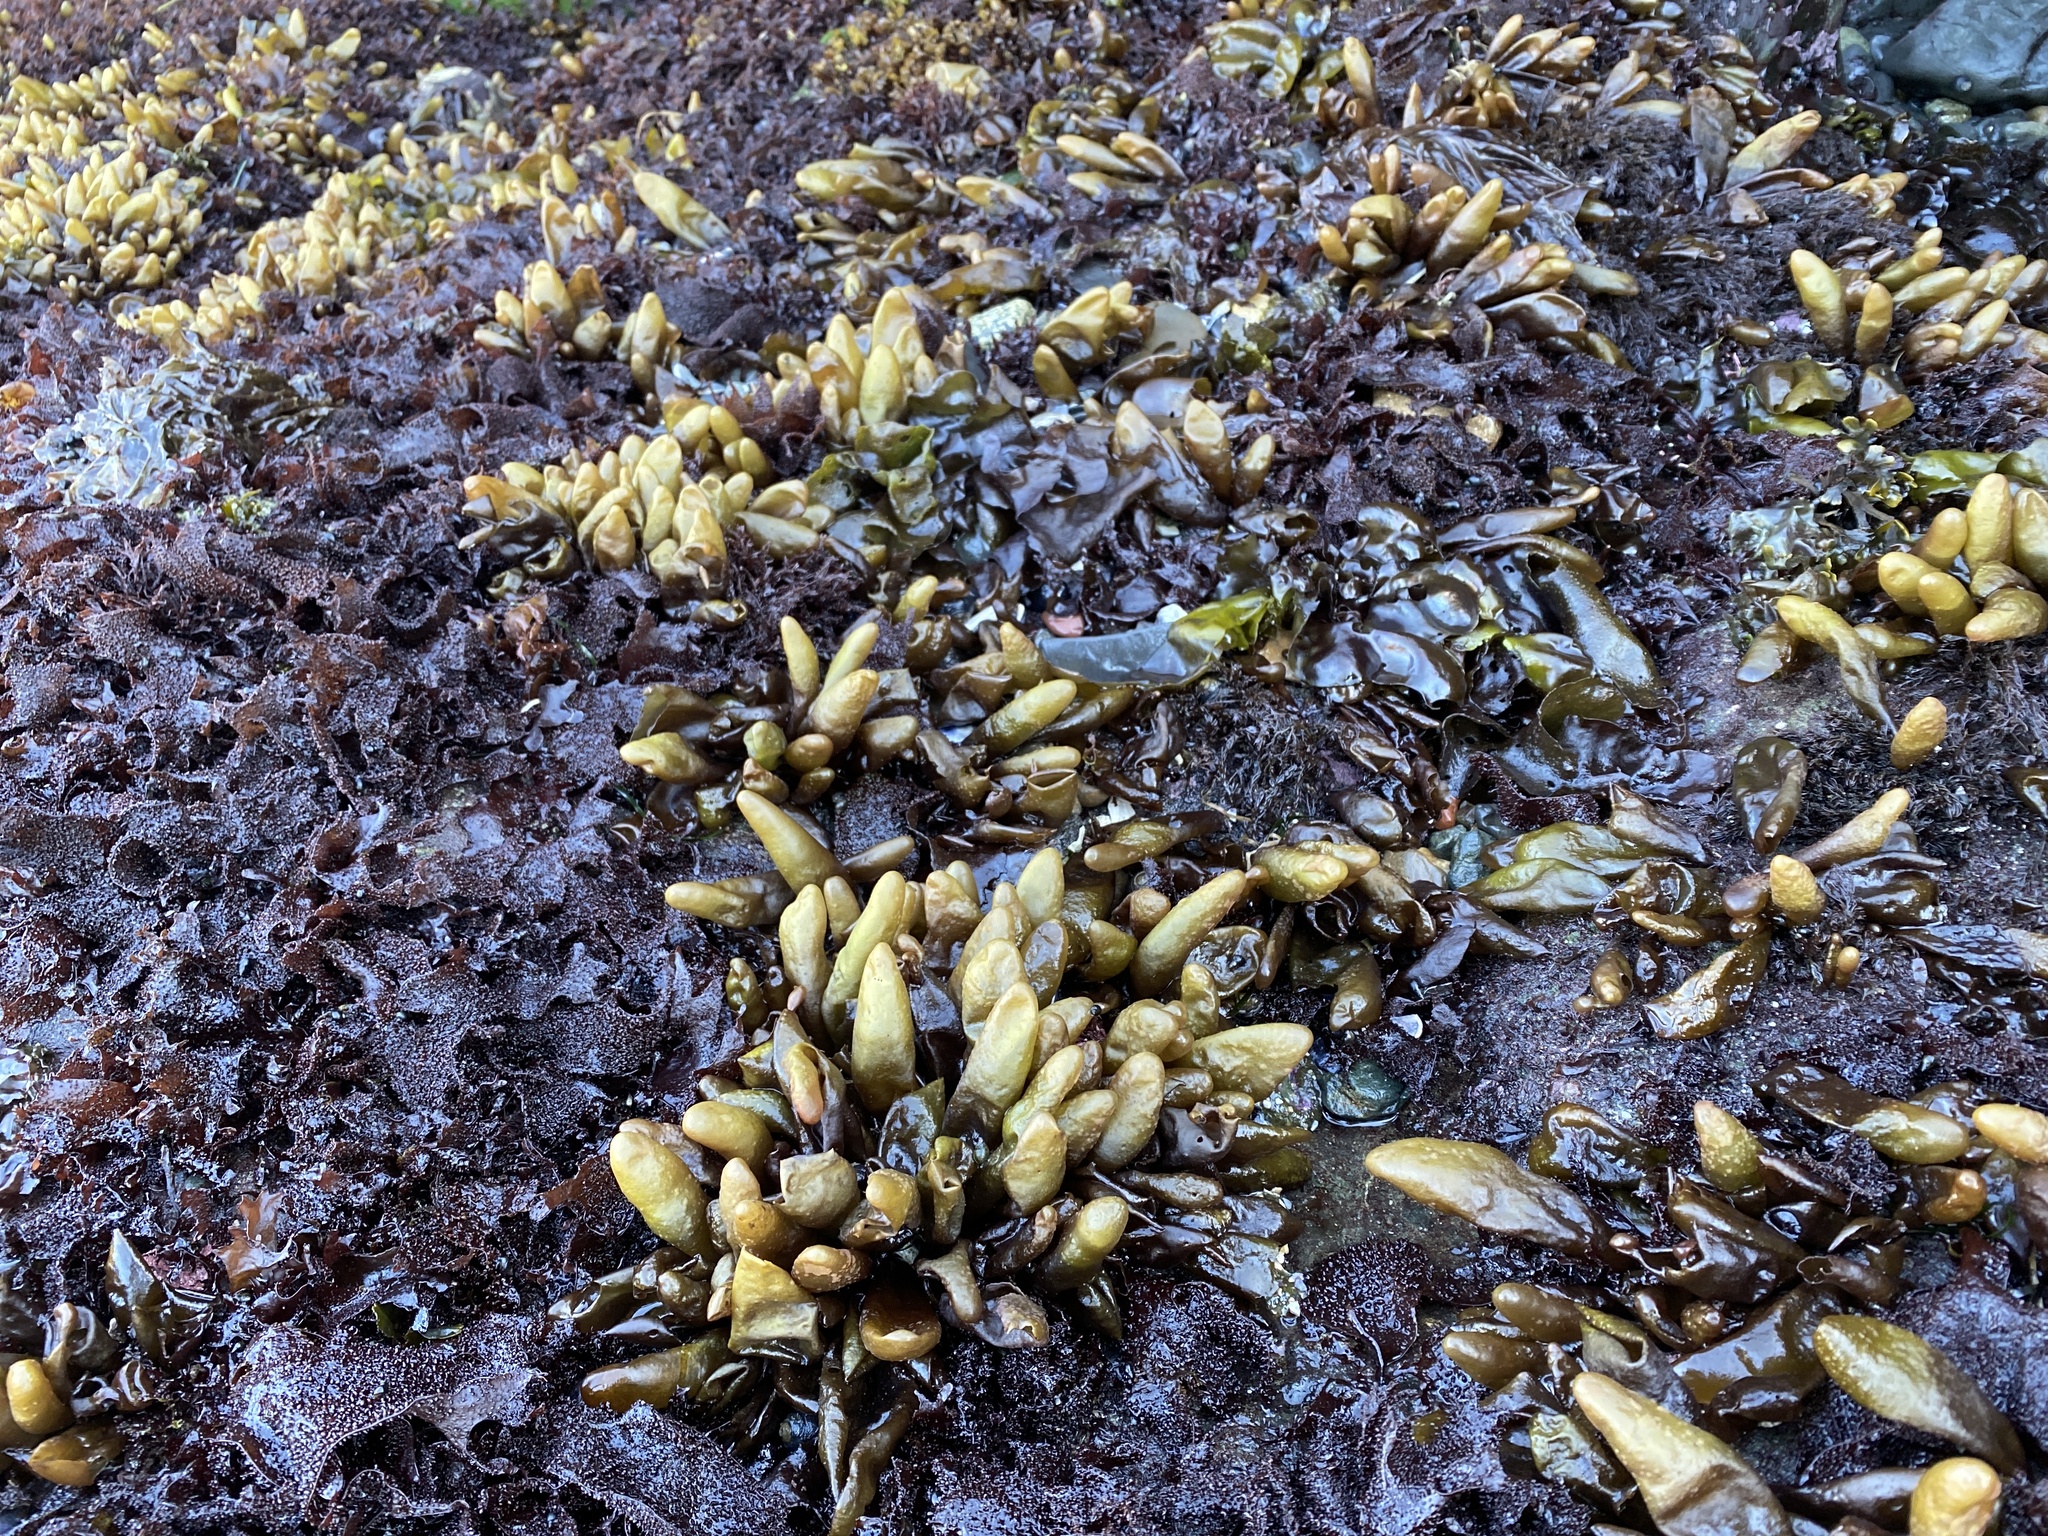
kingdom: Plantae
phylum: Rhodophyta
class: Florideophyceae
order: Palmariales
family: Palmariaceae
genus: Halosaccion
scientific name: Halosaccion glandiforme
